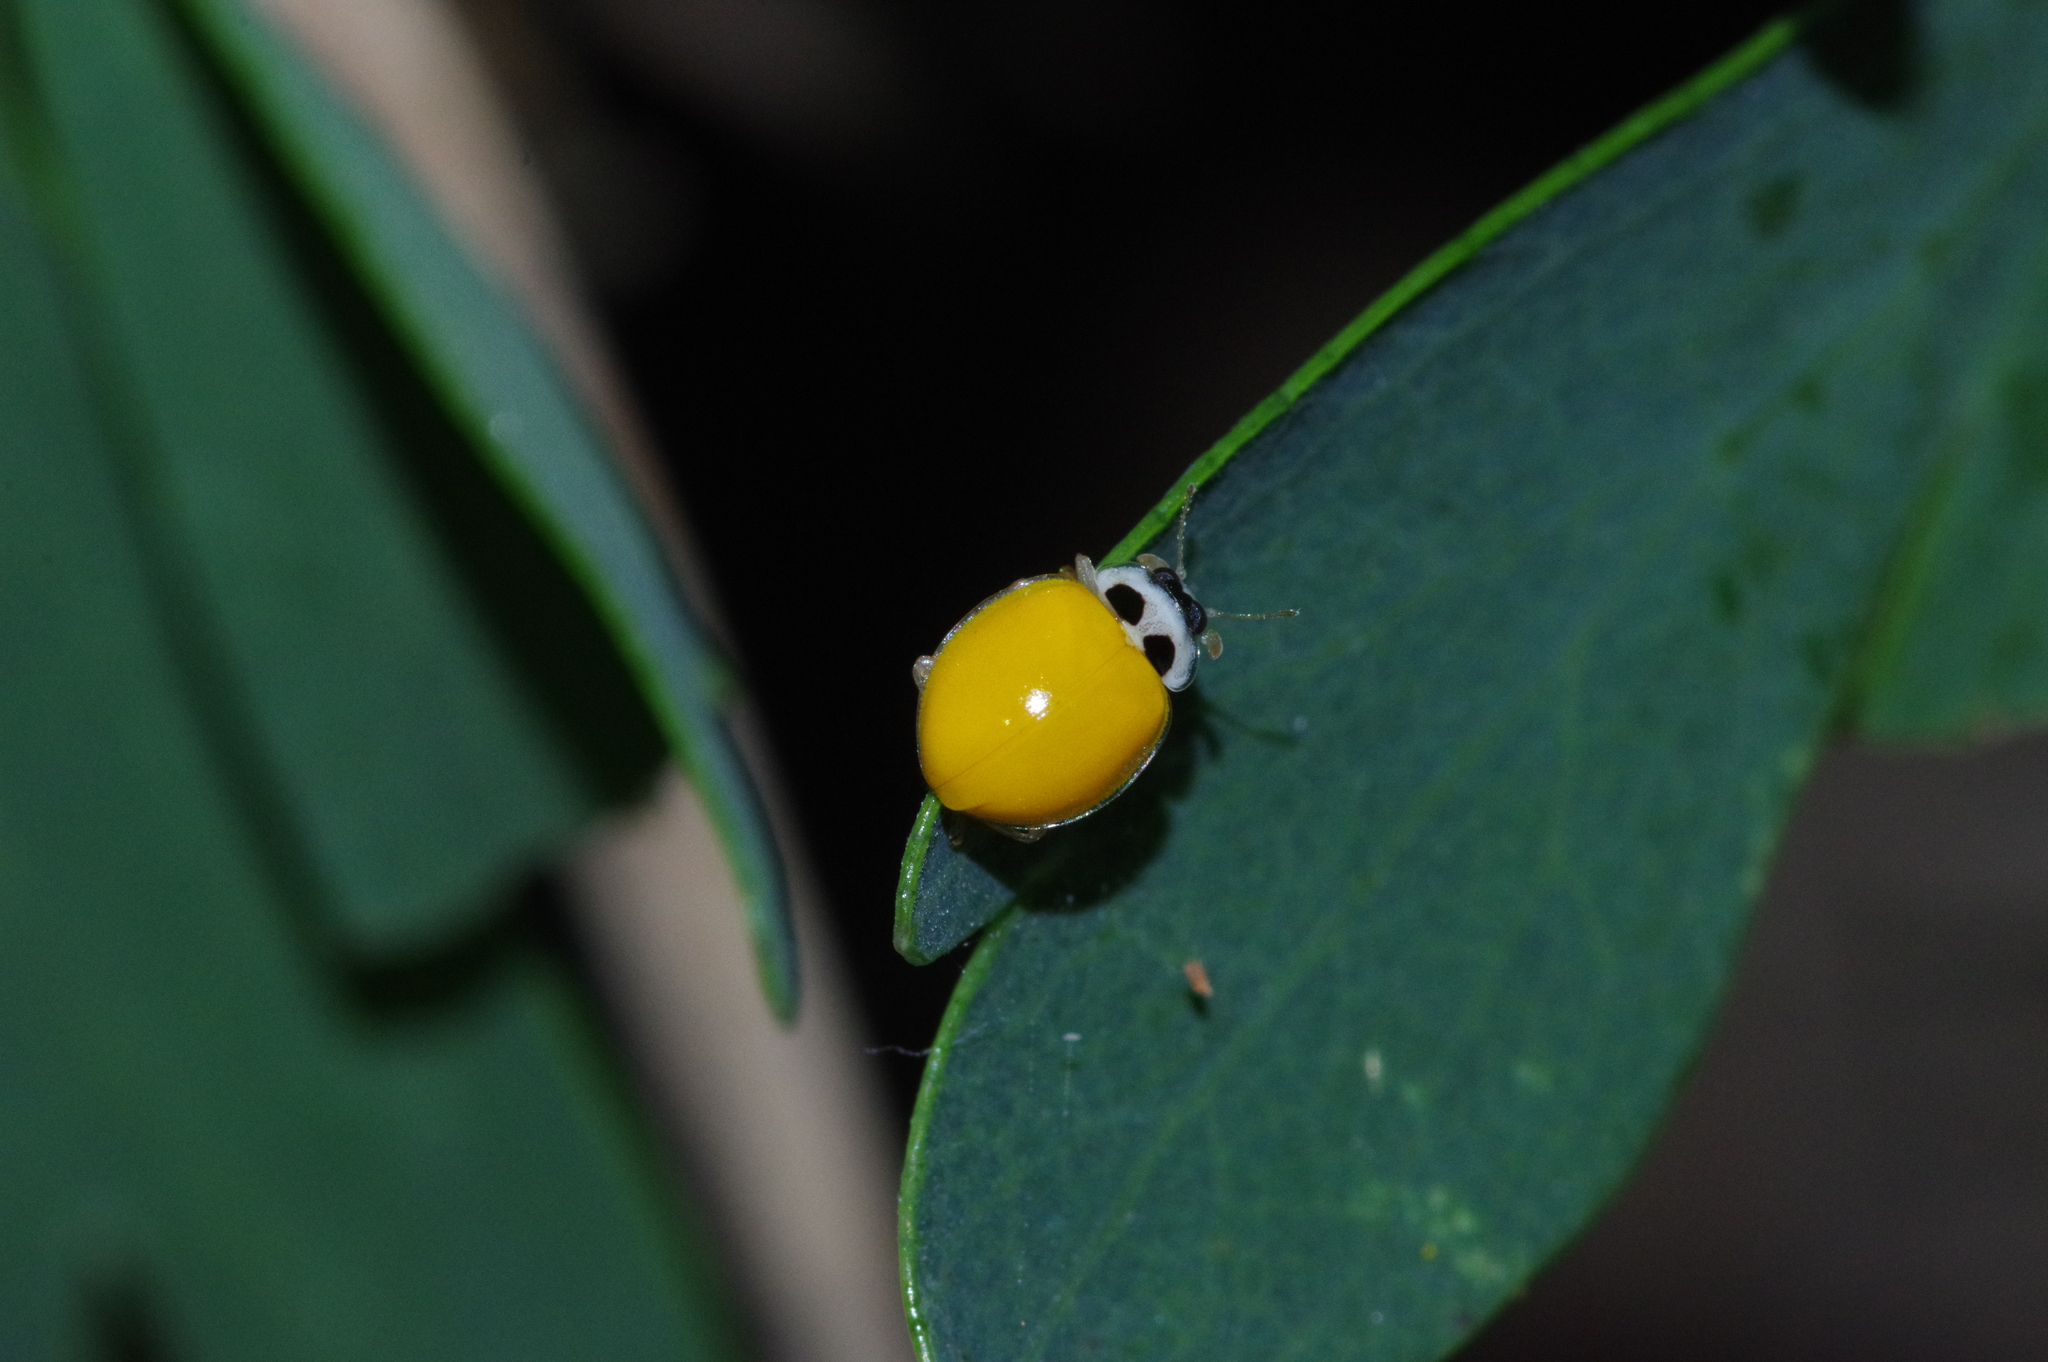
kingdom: Animalia
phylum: Arthropoda
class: Insecta
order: Coleoptera
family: Coccinellidae
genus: Illeis
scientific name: Illeis koebelei
